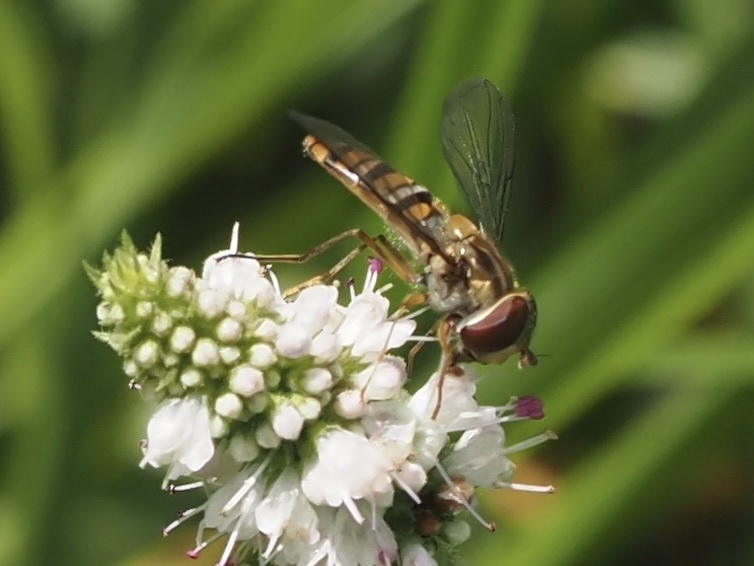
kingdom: Animalia
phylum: Arthropoda
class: Insecta
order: Diptera
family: Syrphidae
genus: Episyrphus
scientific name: Episyrphus balteatus
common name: Marmalade hoverfly
